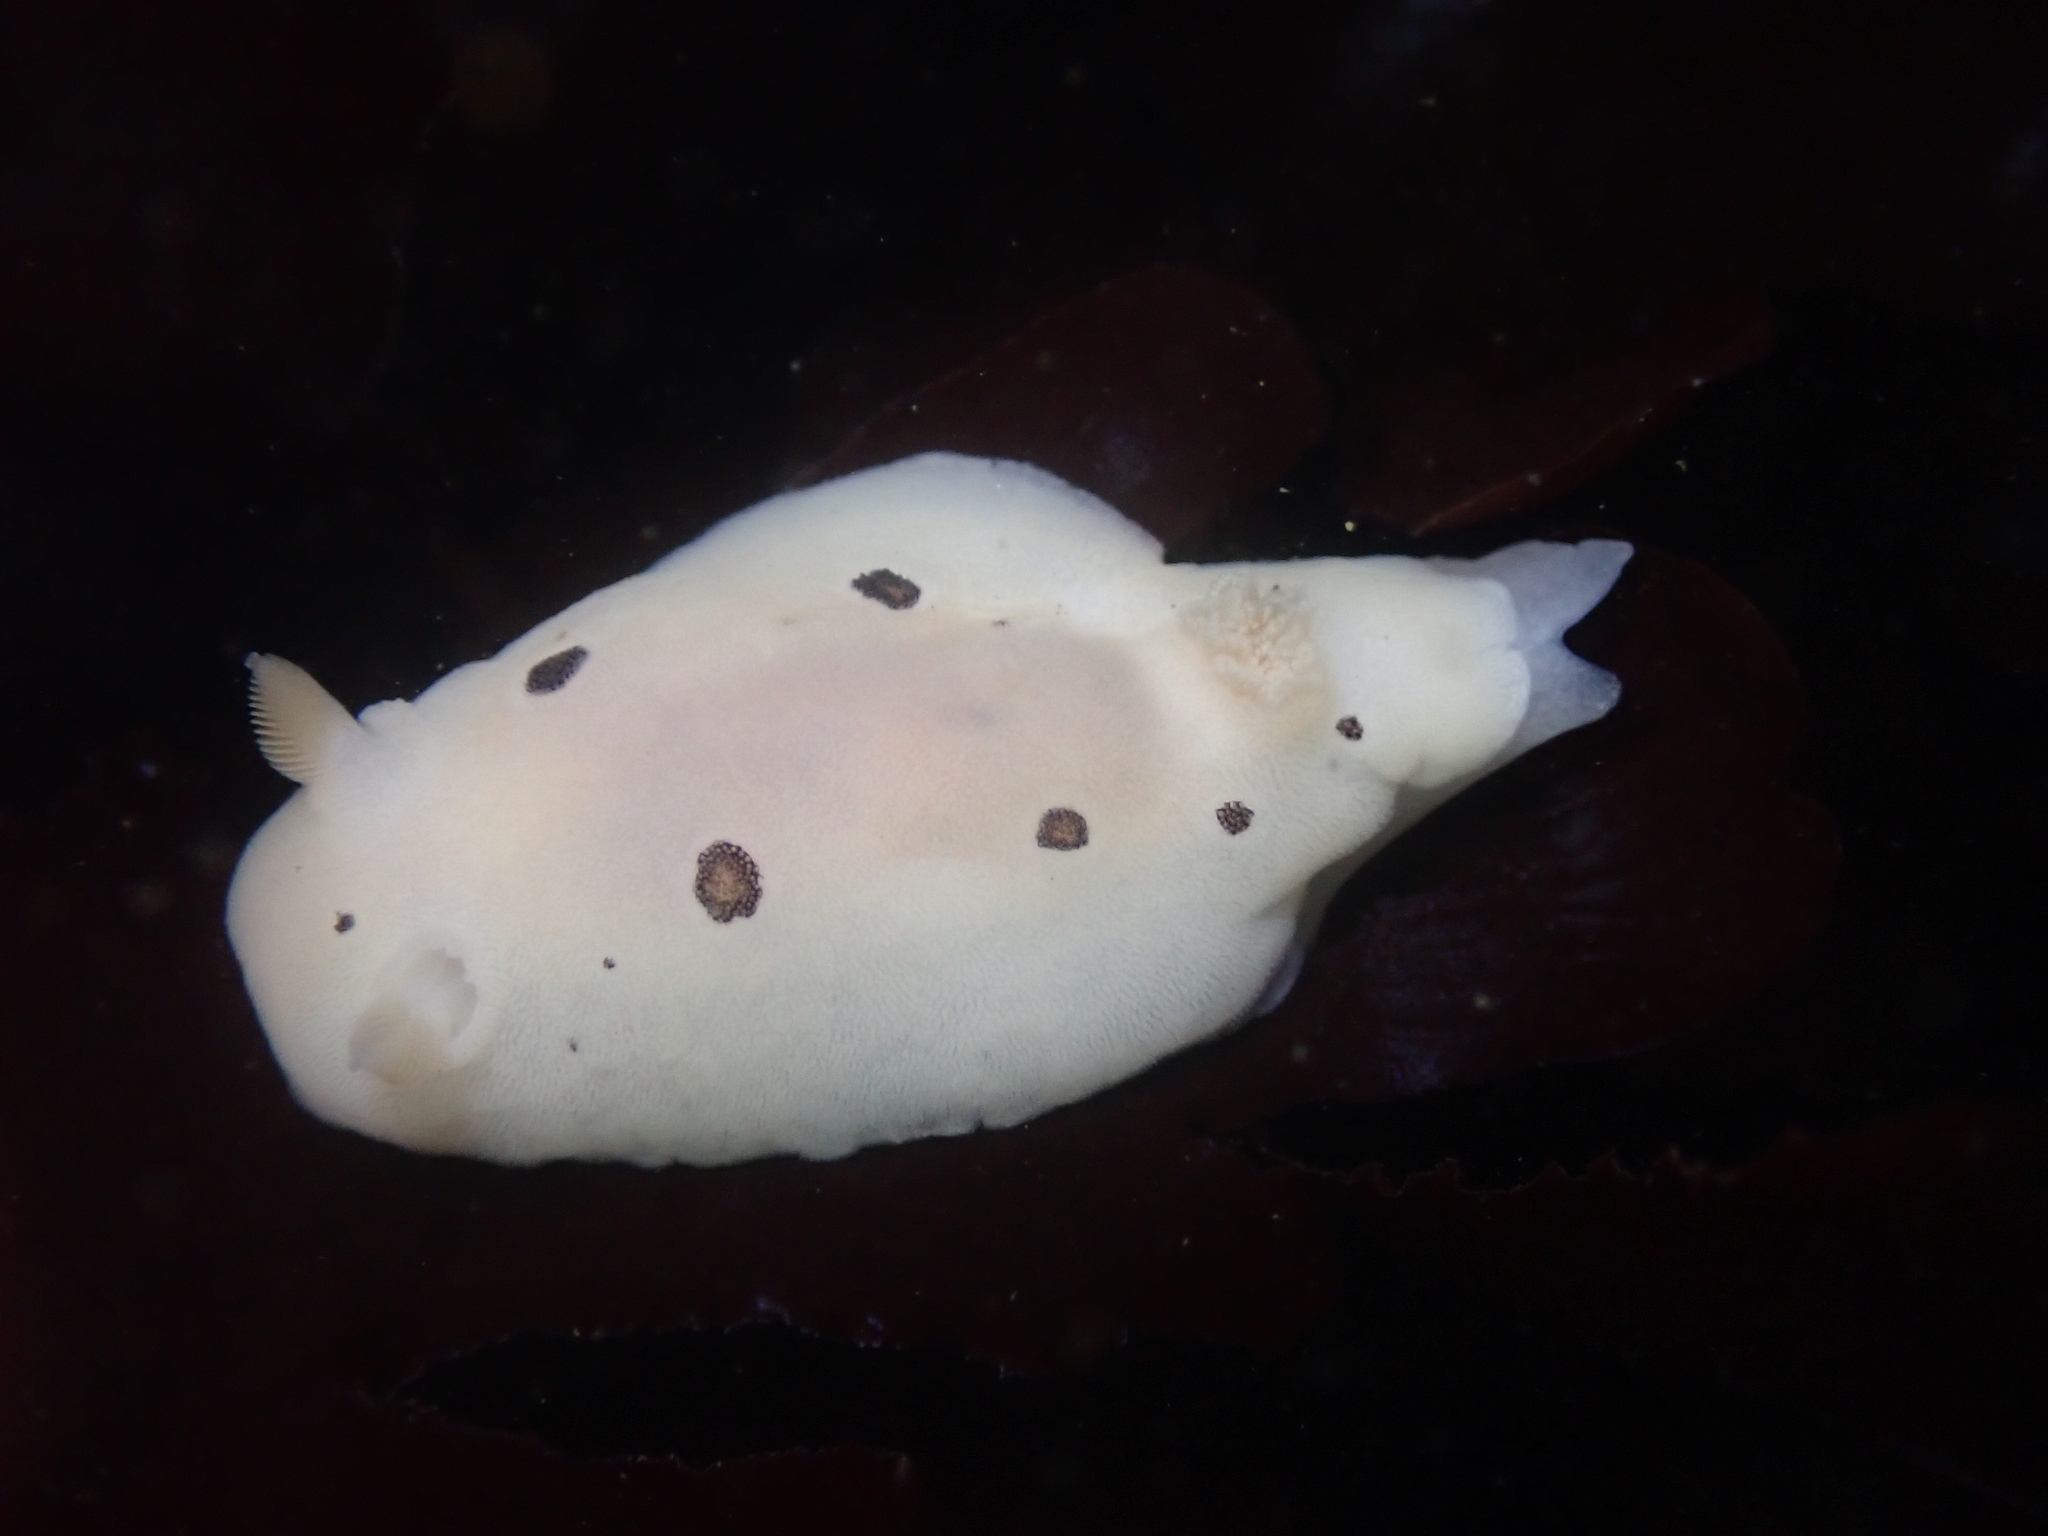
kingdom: Animalia
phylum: Mollusca
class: Gastropoda
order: Nudibranchia
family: Discodorididae
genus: Diaulula
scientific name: Diaulula sandiegensis
